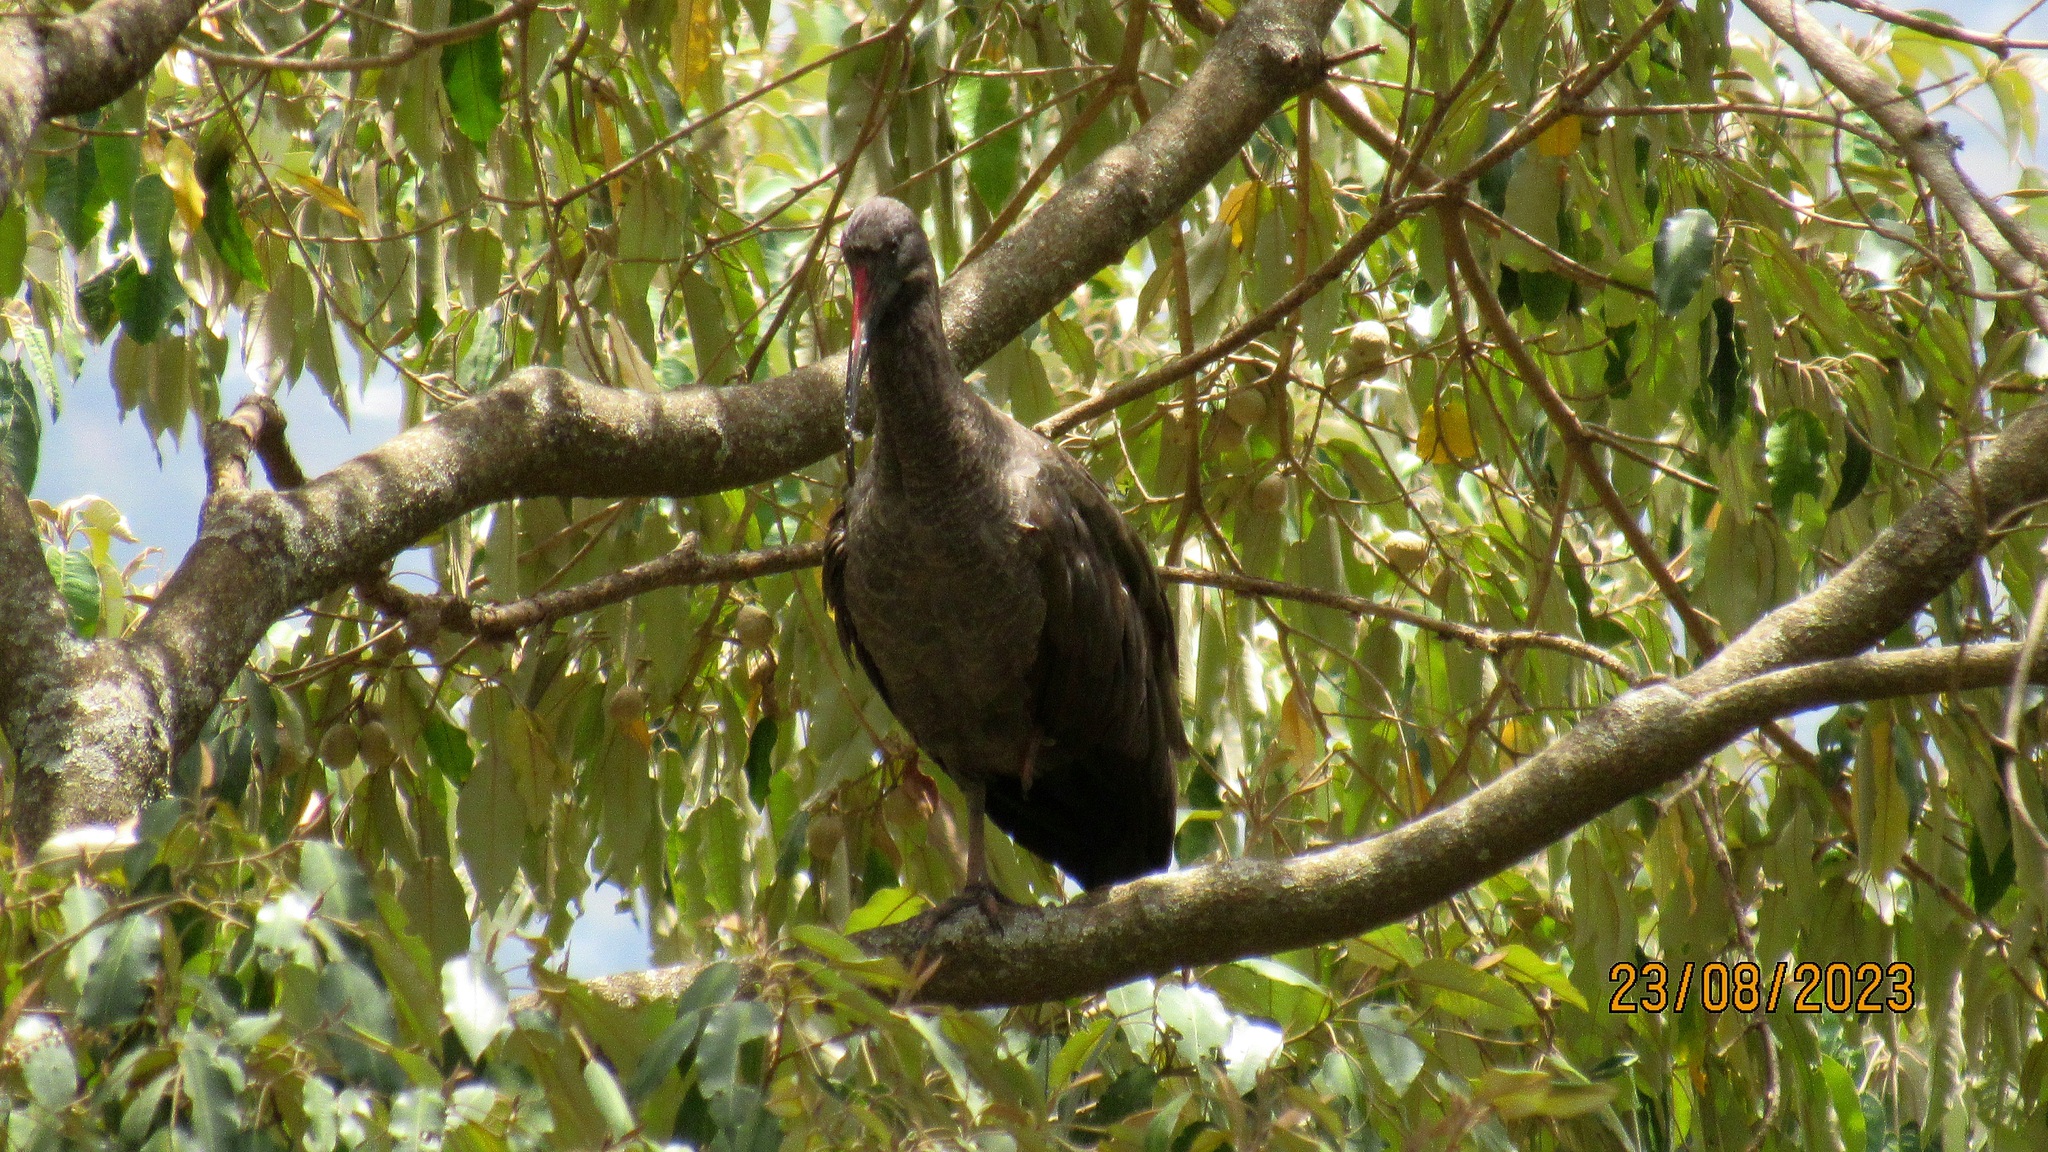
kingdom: Animalia
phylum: Chordata
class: Aves
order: Pelecaniformes
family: Threskiornithidae
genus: Bostrychia
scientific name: Bostrychia hagedash
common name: Hadada ibis
